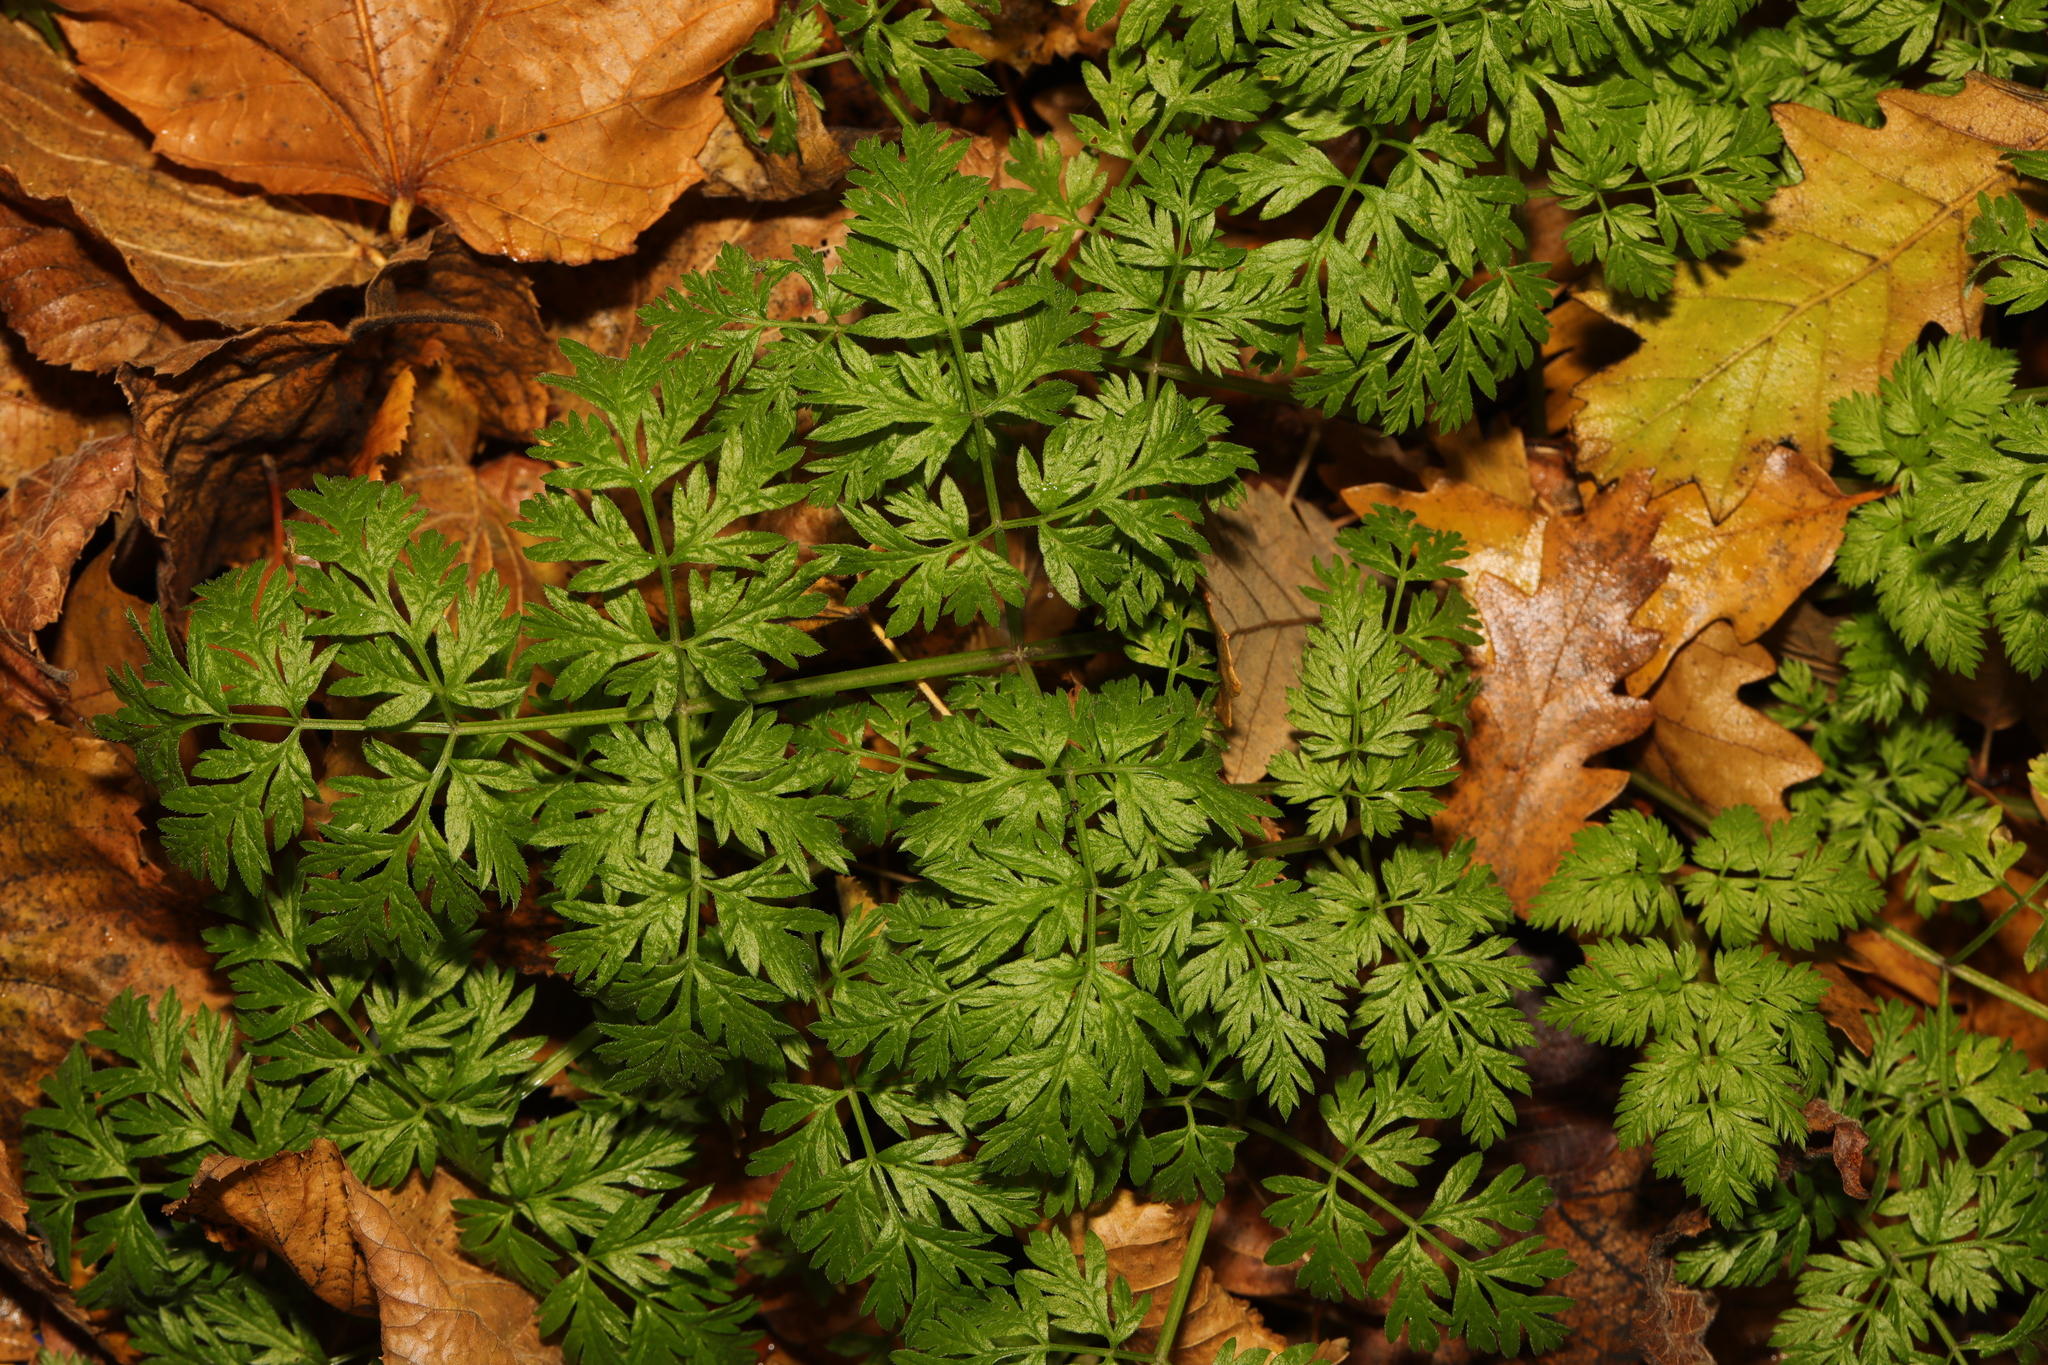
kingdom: Plantae
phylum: Tracheophyta
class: Magnoliopsida
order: Apiales
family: Apiaceae
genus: Anthriscus
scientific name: Anthriscus sylvestris
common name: Cow parsley
